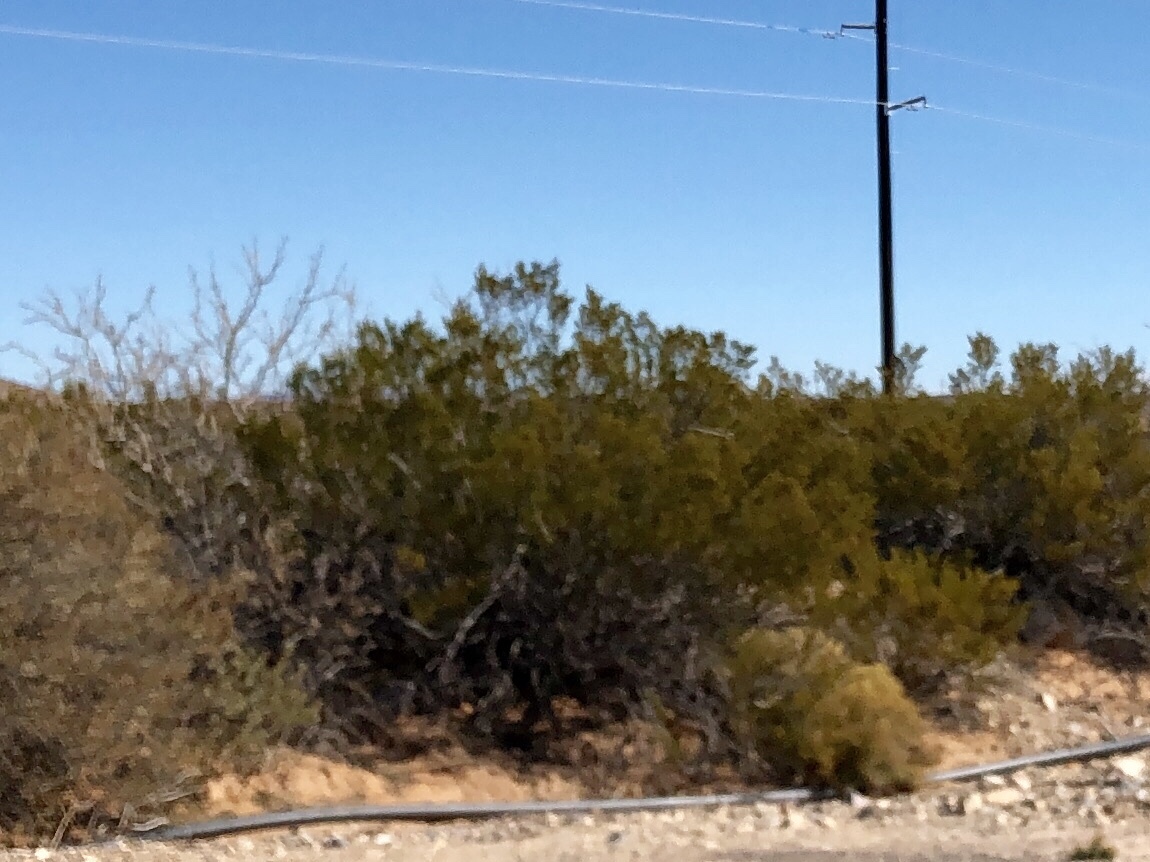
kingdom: Plantae
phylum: Tracheophyta
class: Magnoliopsida
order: Zygophyllales
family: Zygophyllaceae
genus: Larrea
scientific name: Larrea tridentata
